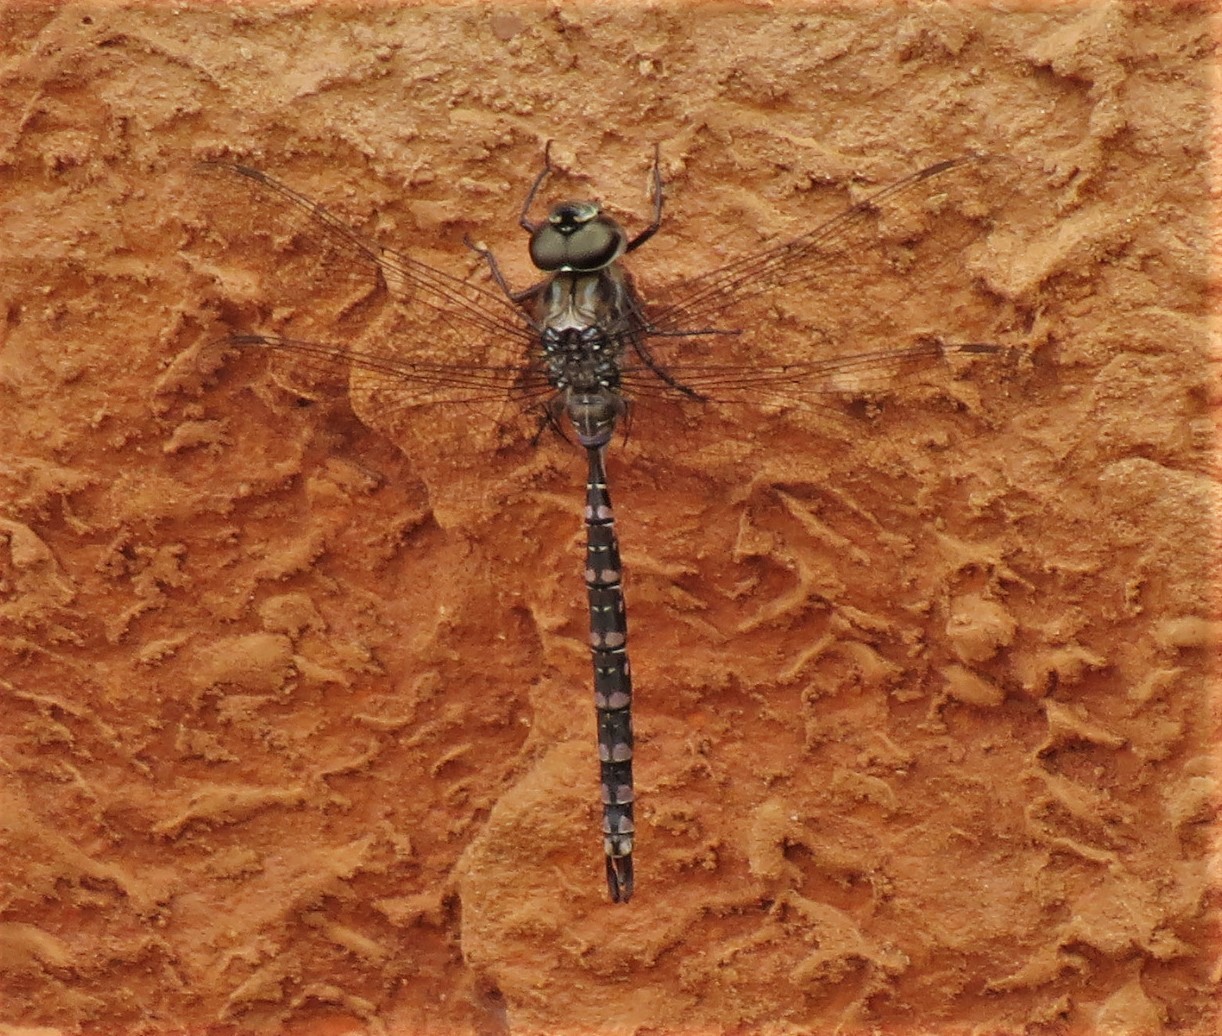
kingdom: Animalia
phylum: Arthropoda
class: Insecta
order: Odonata
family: Aeshnidae
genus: Aeshna
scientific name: Aeshna canadensis
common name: Canada darner
